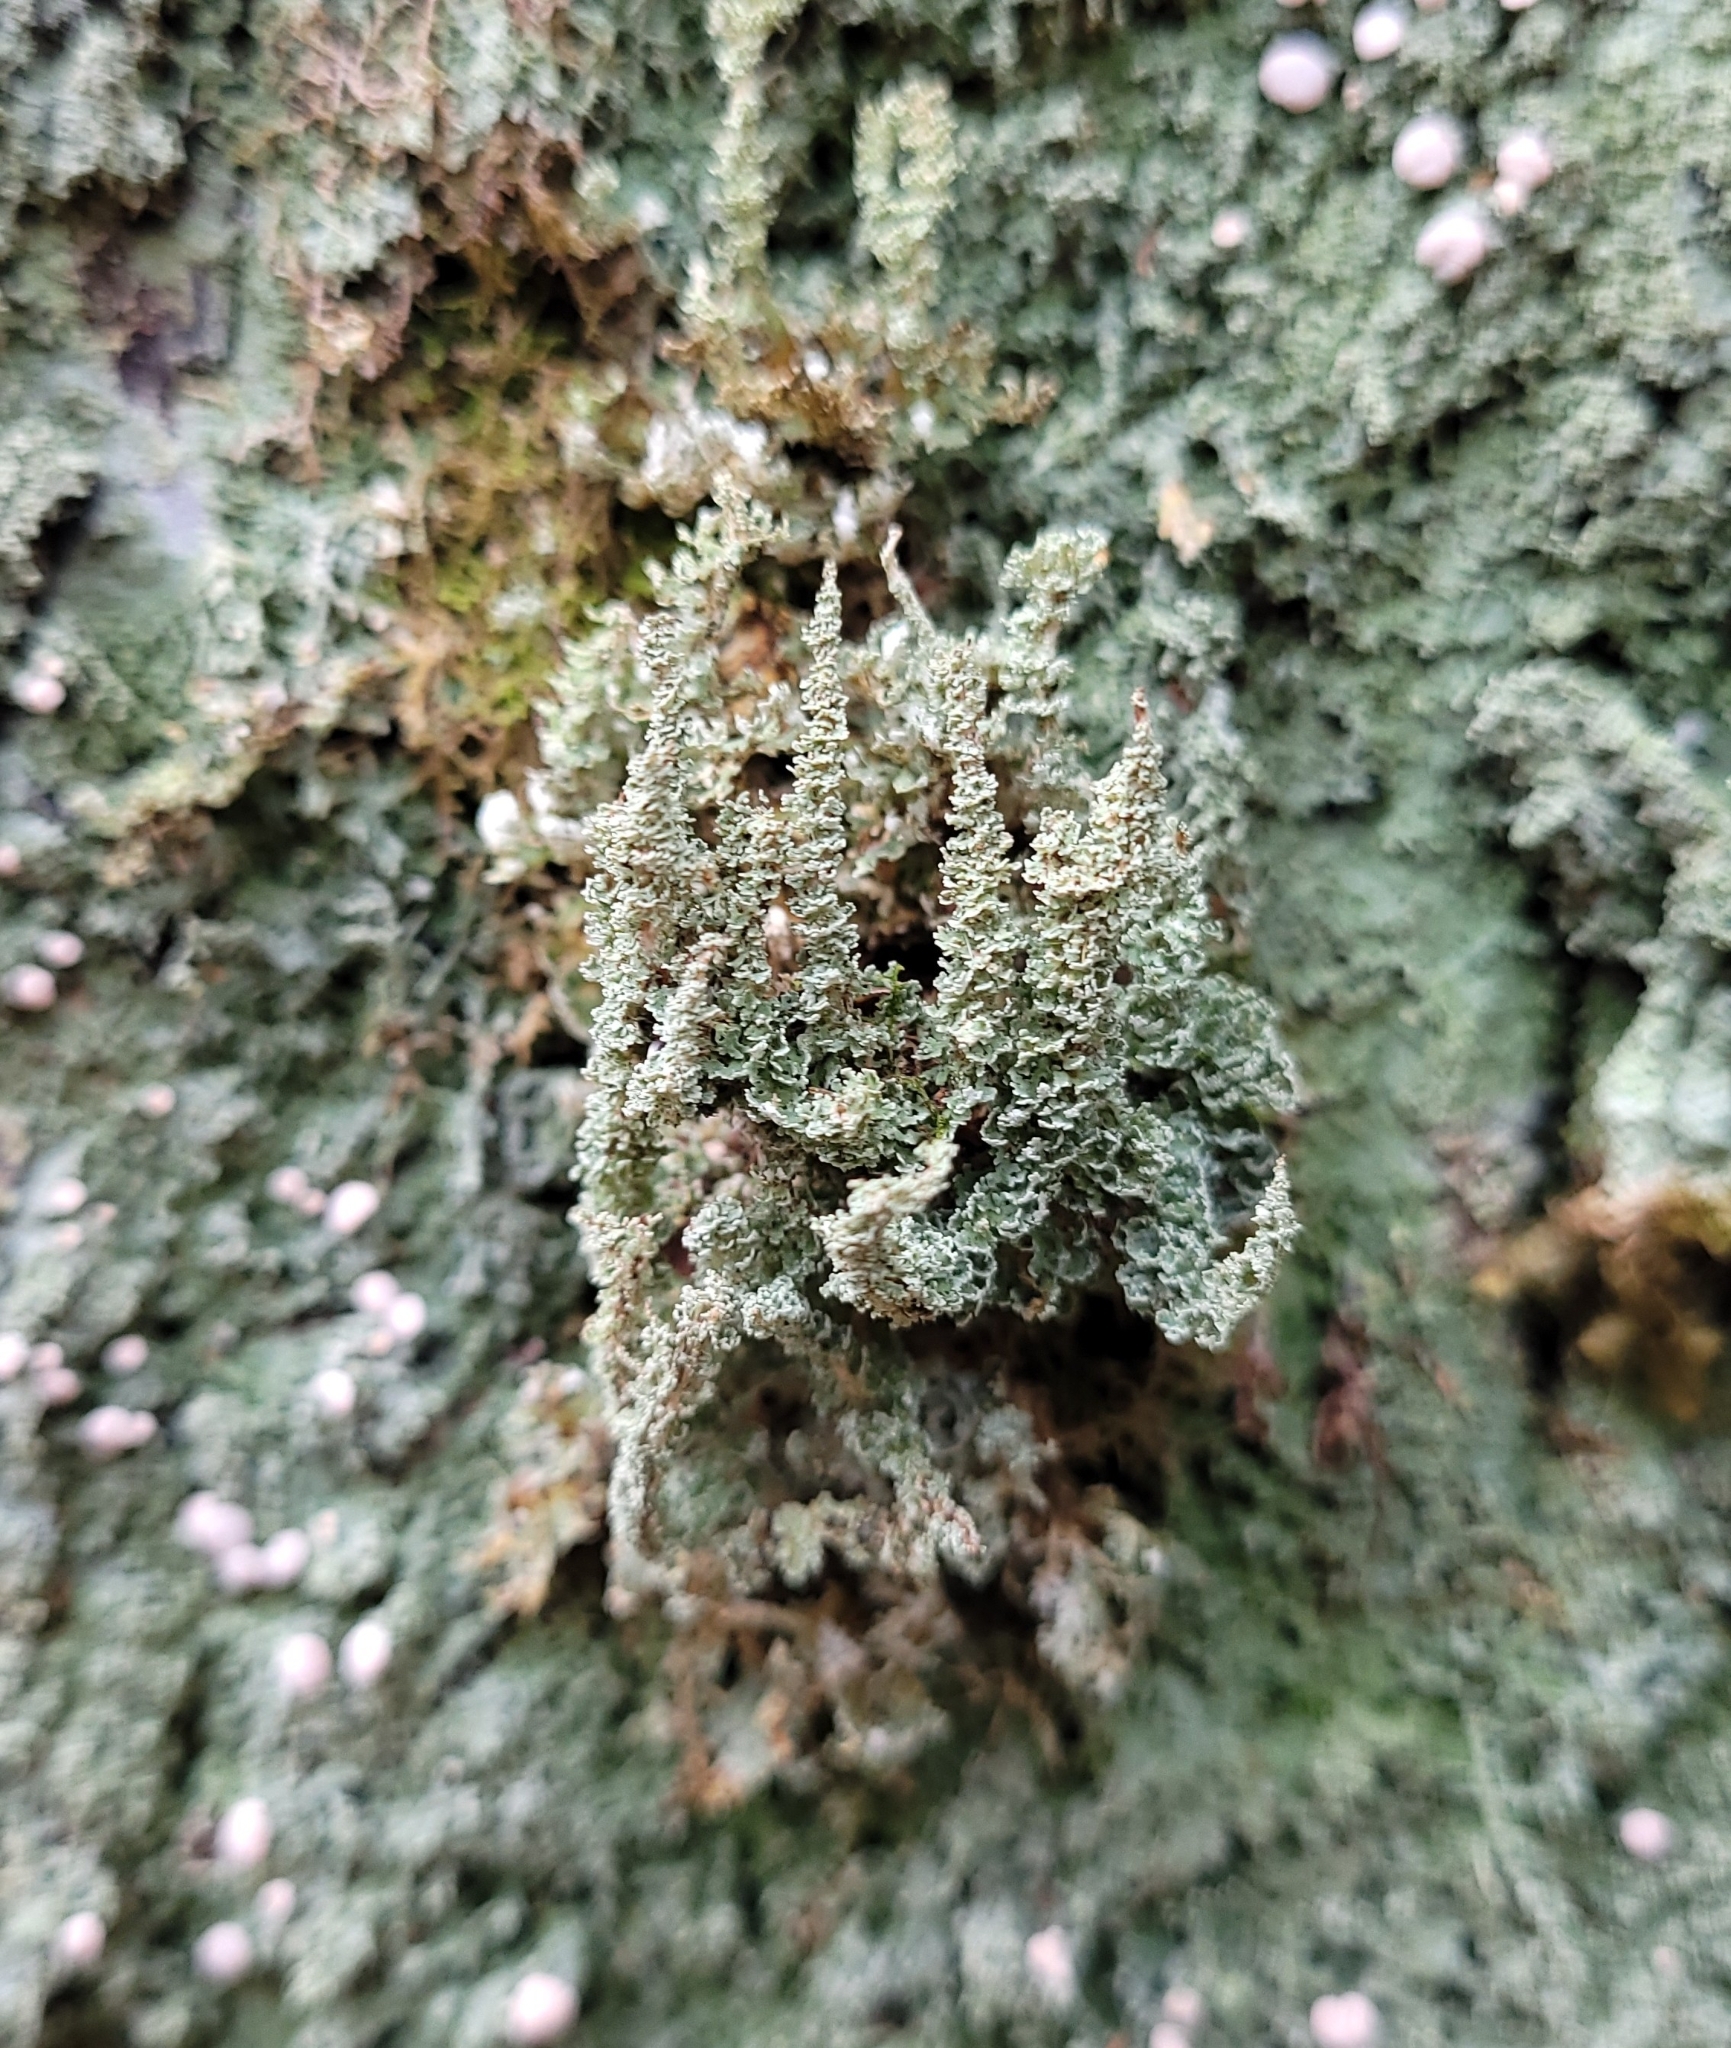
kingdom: Fungi
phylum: Ascomycota
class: Lecanoromycetes
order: Pertusariales
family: Icmadophilaceae
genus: Icmadophila
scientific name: Icmadophila ericetorum
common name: Candy lichen
